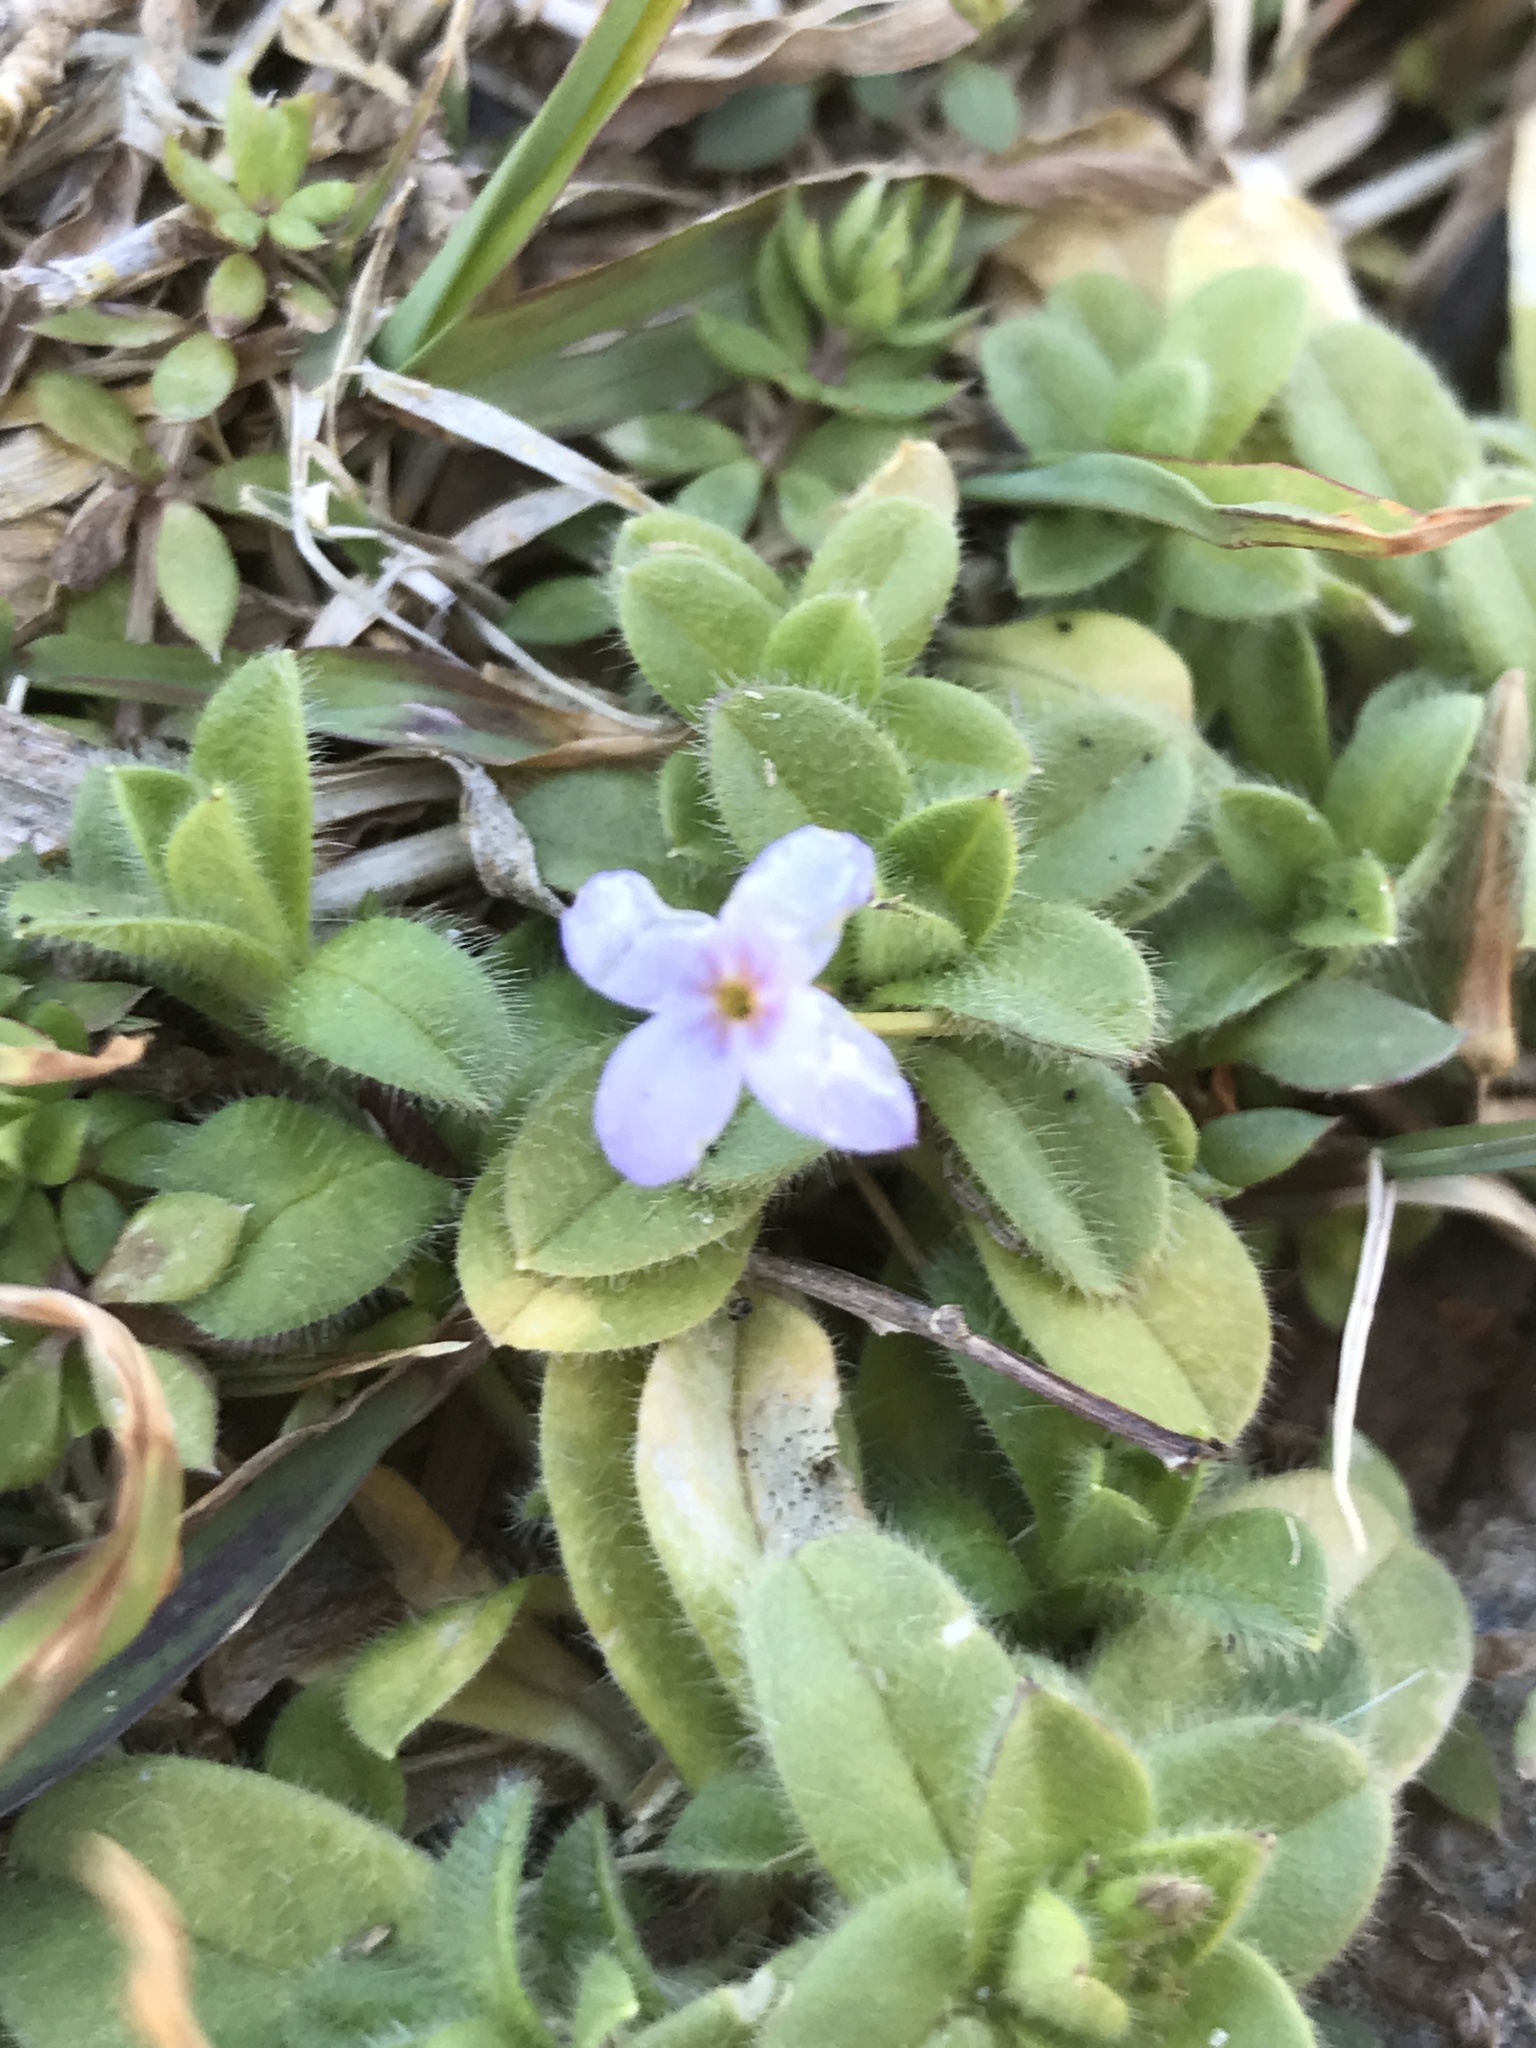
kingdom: Plantae
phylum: Tracheophyta
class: Magnoliopsida
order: Gentianales
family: Rubiaceae
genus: Houstonia
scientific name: Houstonia pusilla
